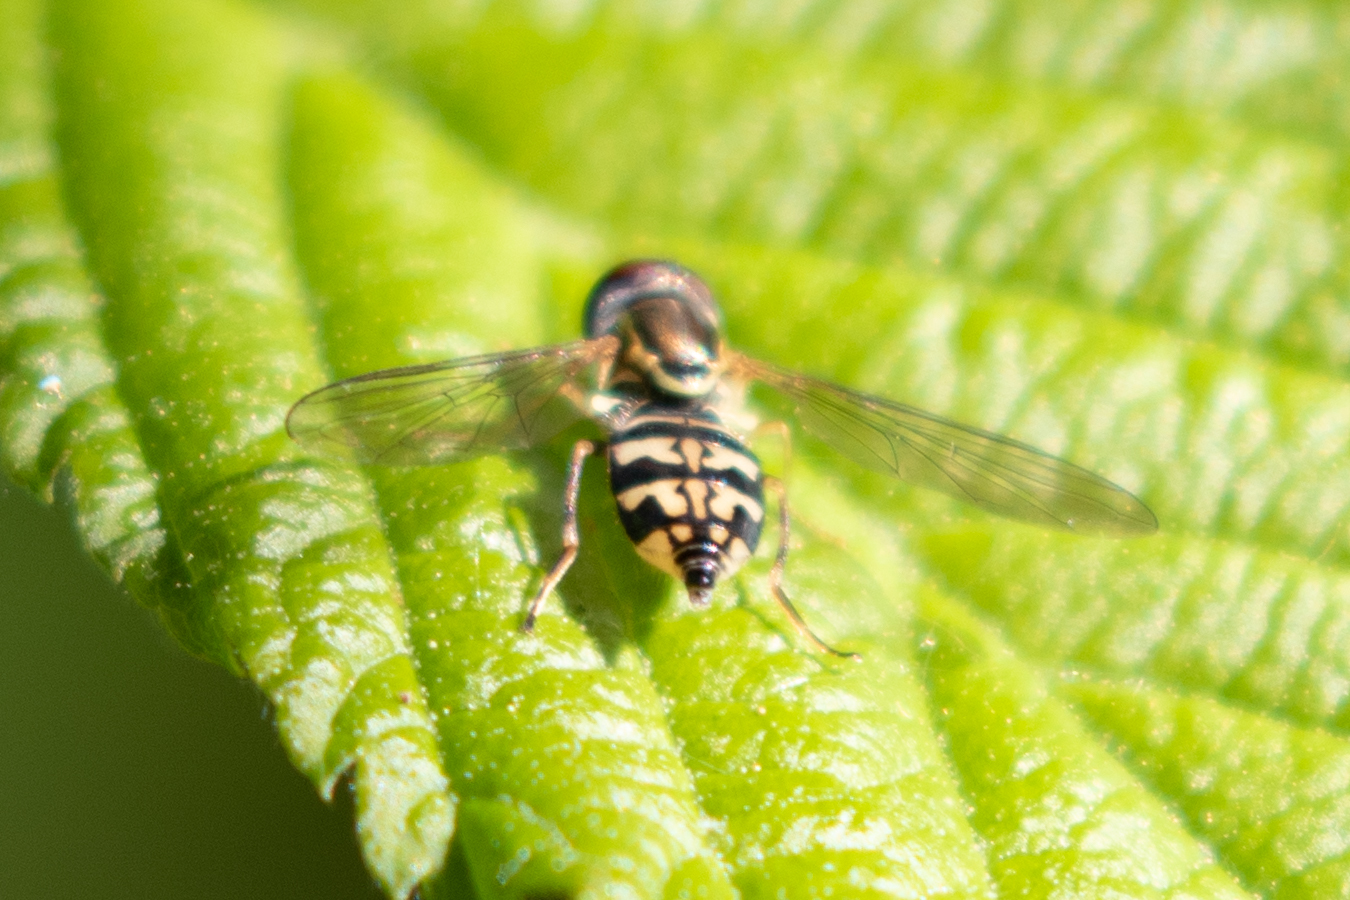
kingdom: Animalia
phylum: Arthropoda
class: Insecta
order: Diptera
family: Syrphidae
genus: Toxomerus
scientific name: Toxomerus geminatus
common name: Eastern calligrapher
